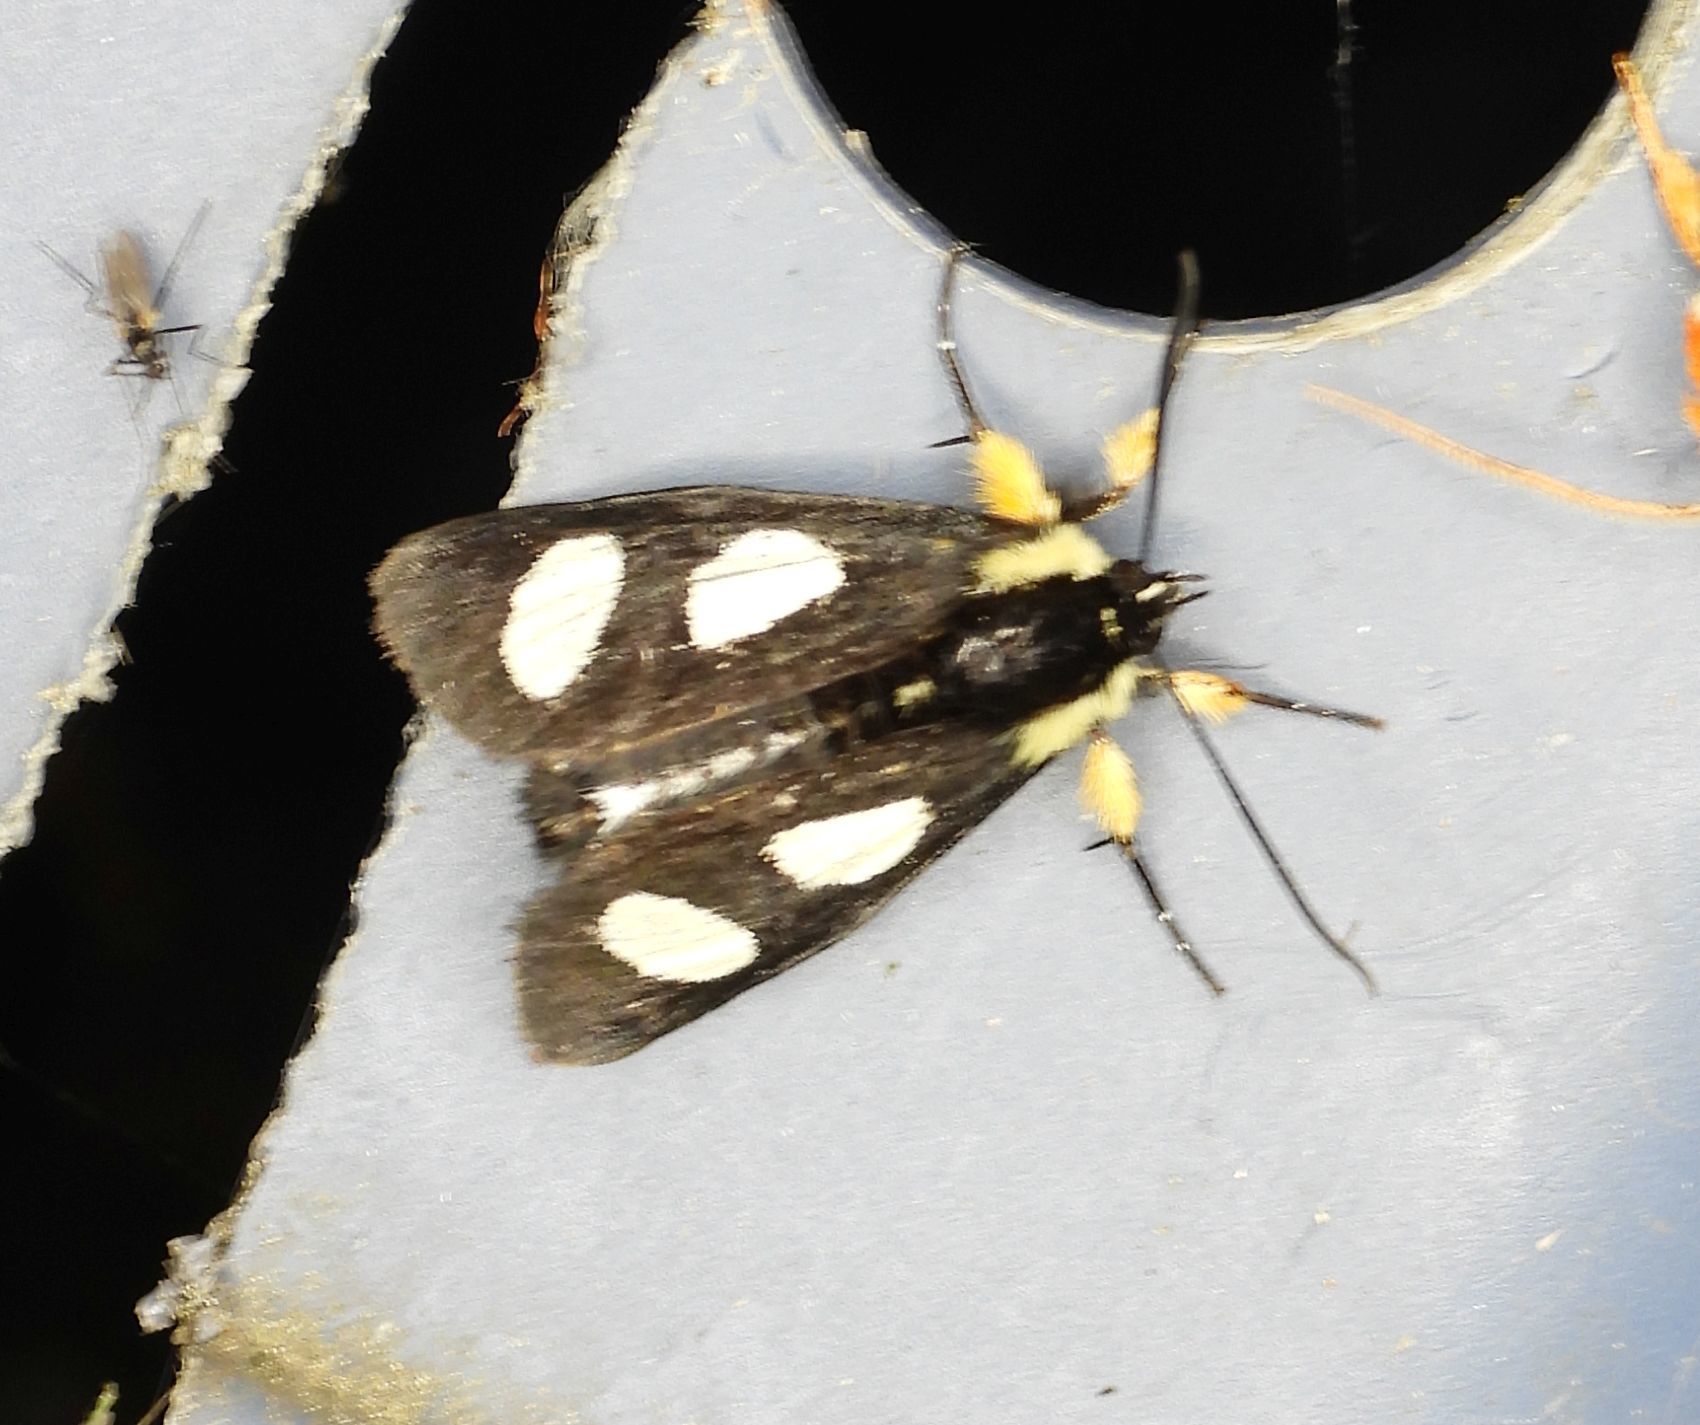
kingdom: Animalia
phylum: Arthropoda
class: Insecta
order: Lepidoptera
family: Noctuidae
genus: Alypia
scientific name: Alypia octomaculata
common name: Eight-spotted forester
